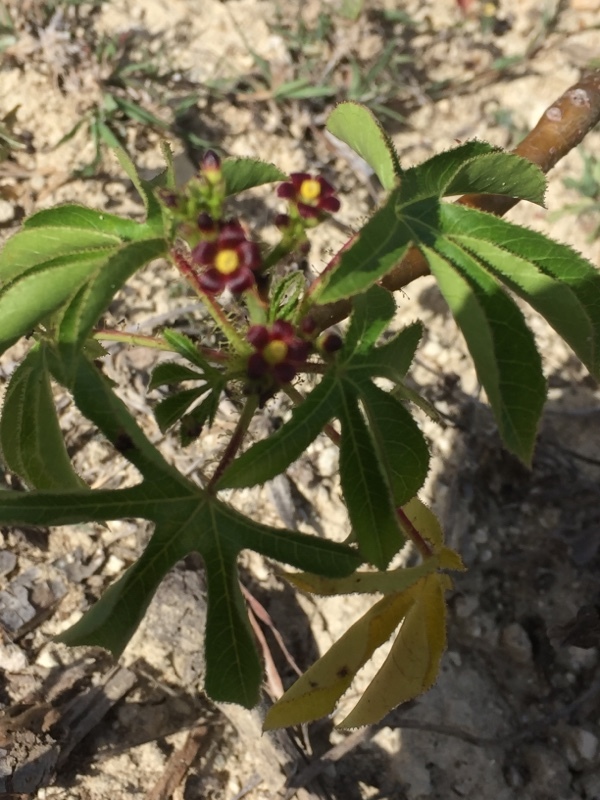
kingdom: Plantae
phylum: Tracheophyta
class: Magnoliopsida
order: Malpighiales
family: Euphorbiaceae
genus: Jatropha
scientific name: Jatropha gossypiifolia
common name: Bellyache bush
